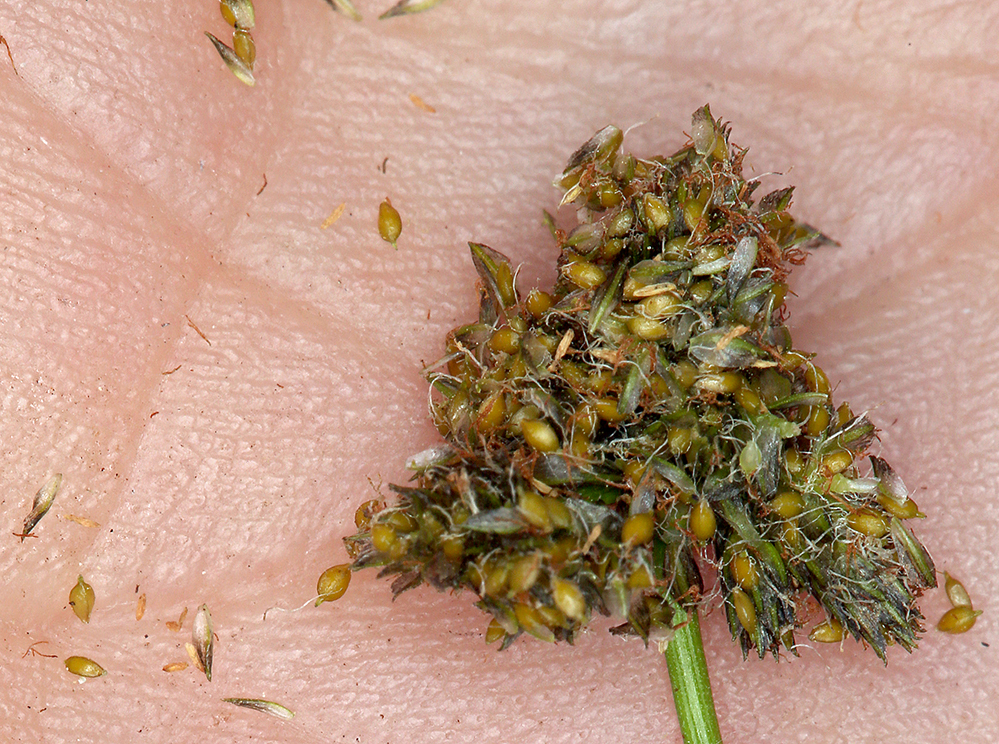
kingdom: Plantae
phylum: Tracheophyta
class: Liliopsida
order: Poales
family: Cyperaceae
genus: Scirpus
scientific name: Scirpus congdonii
